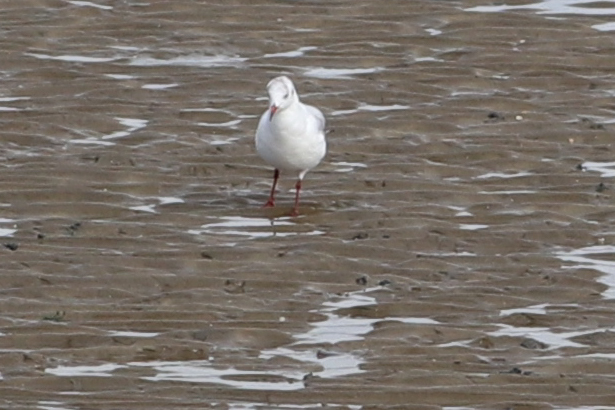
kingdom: Animalia
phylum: Chordata
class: Aves
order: Charadriiformes
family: Laridae
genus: Chroicocephalus
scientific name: Chroicocephalus ridibundus
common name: Black-headed gull
